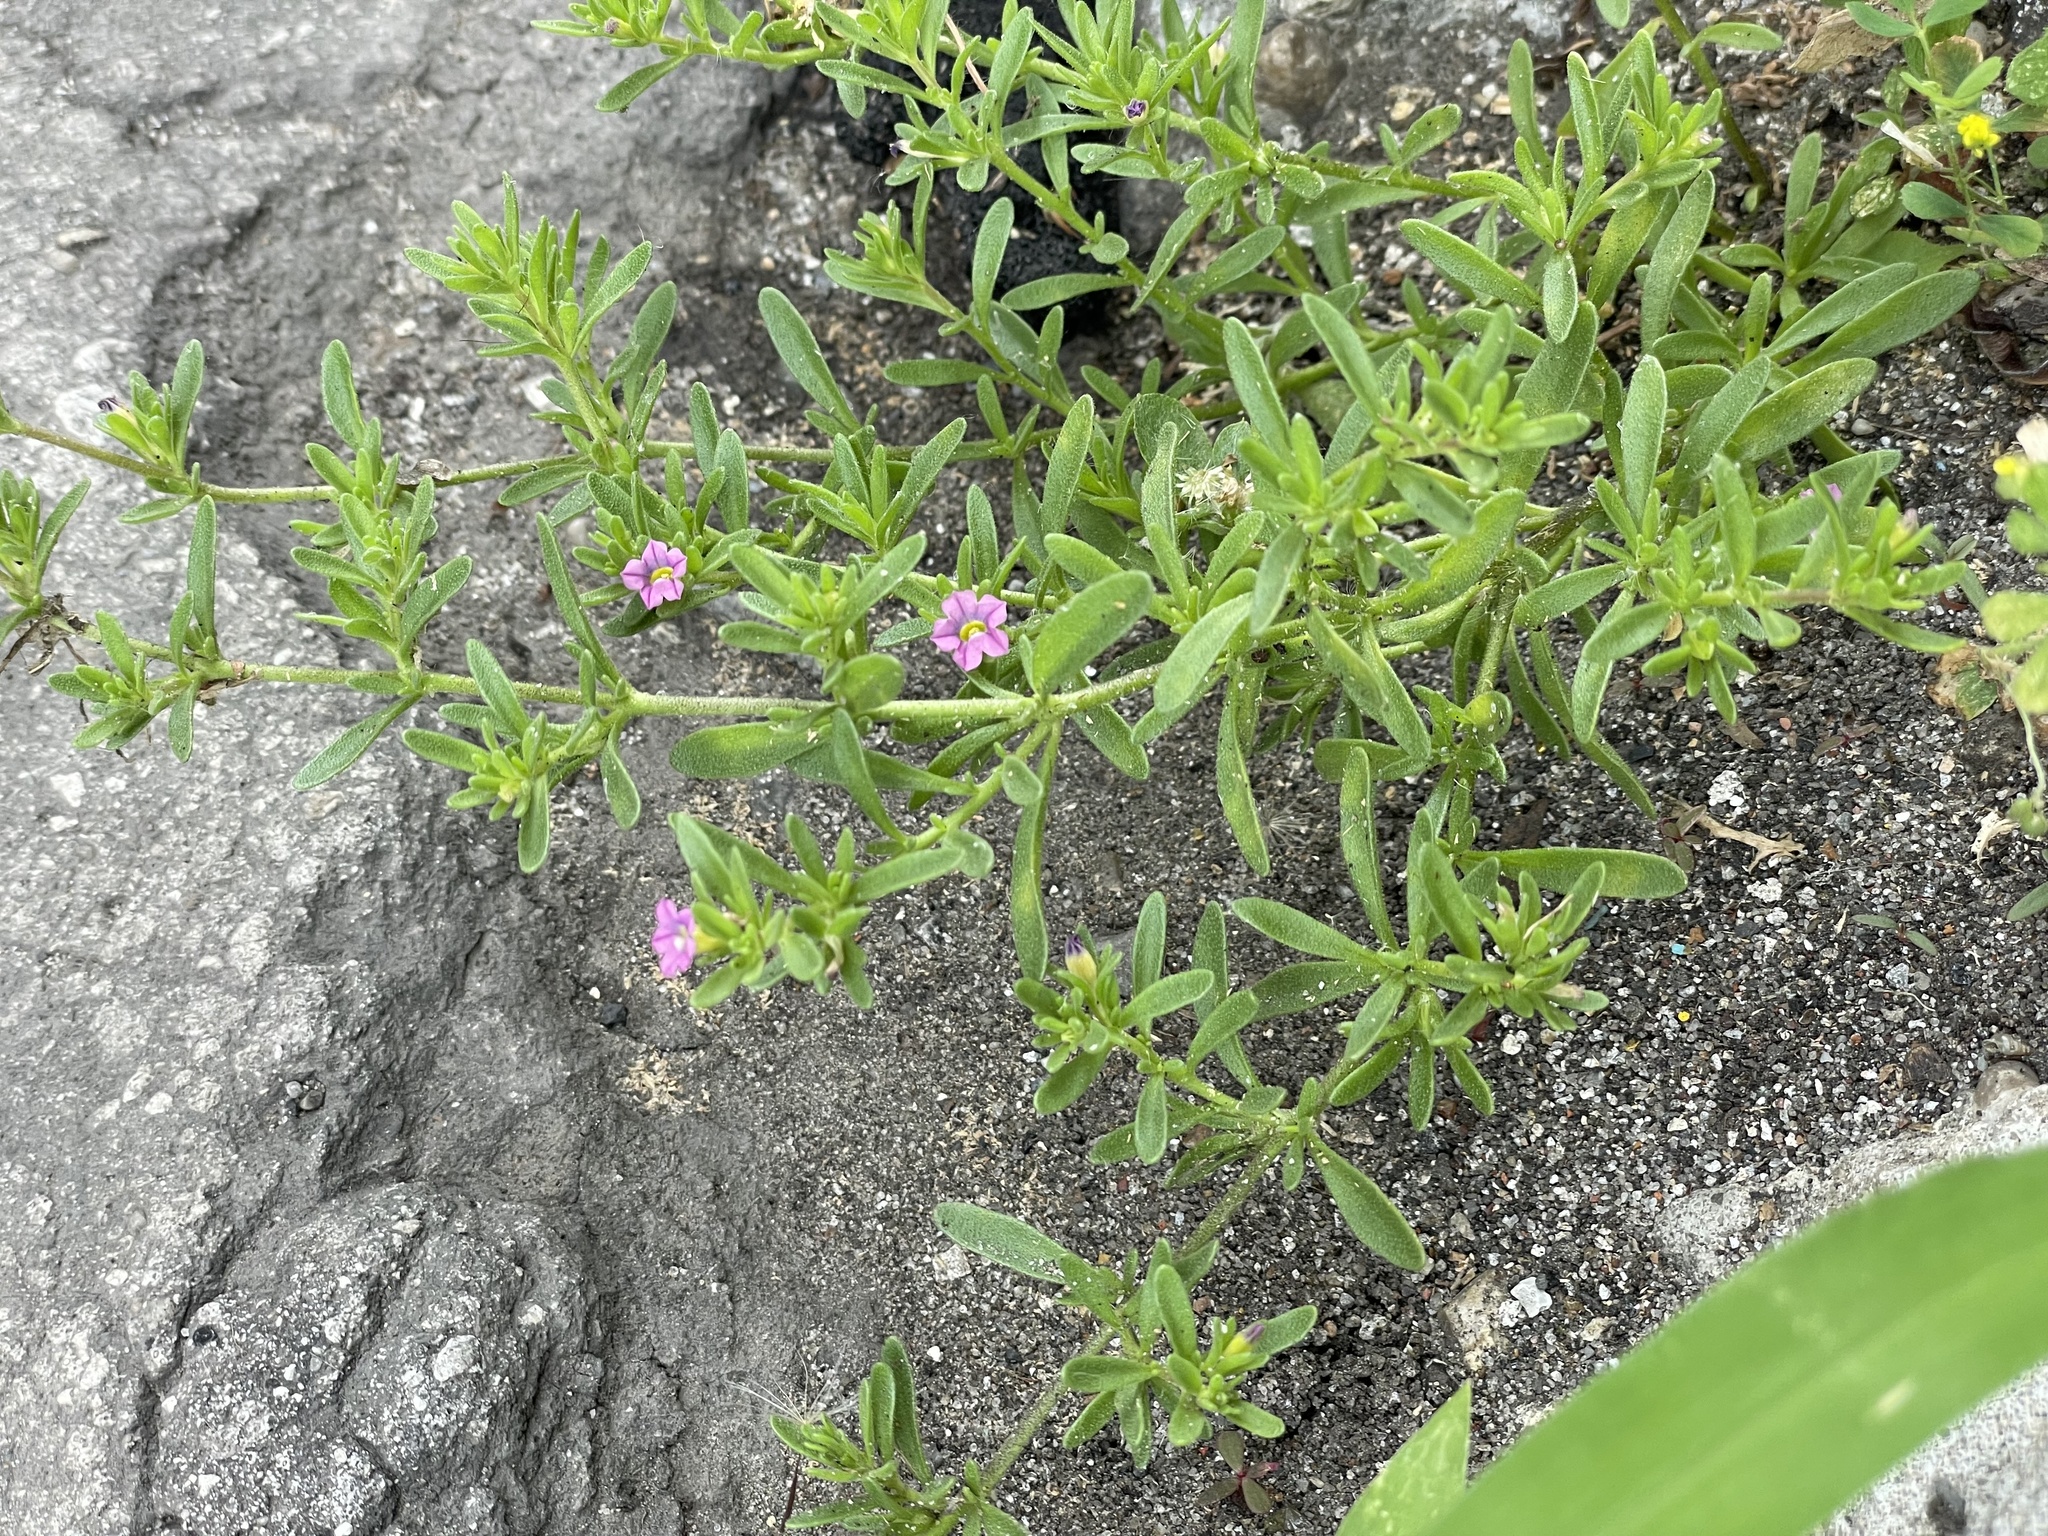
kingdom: Plantae
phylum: Tracheophyta
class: Magnoliopsida
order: Solanales
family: Solanaceae
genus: Calibrachoa
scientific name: Calibrachoa parviflora
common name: Seaside petunia
